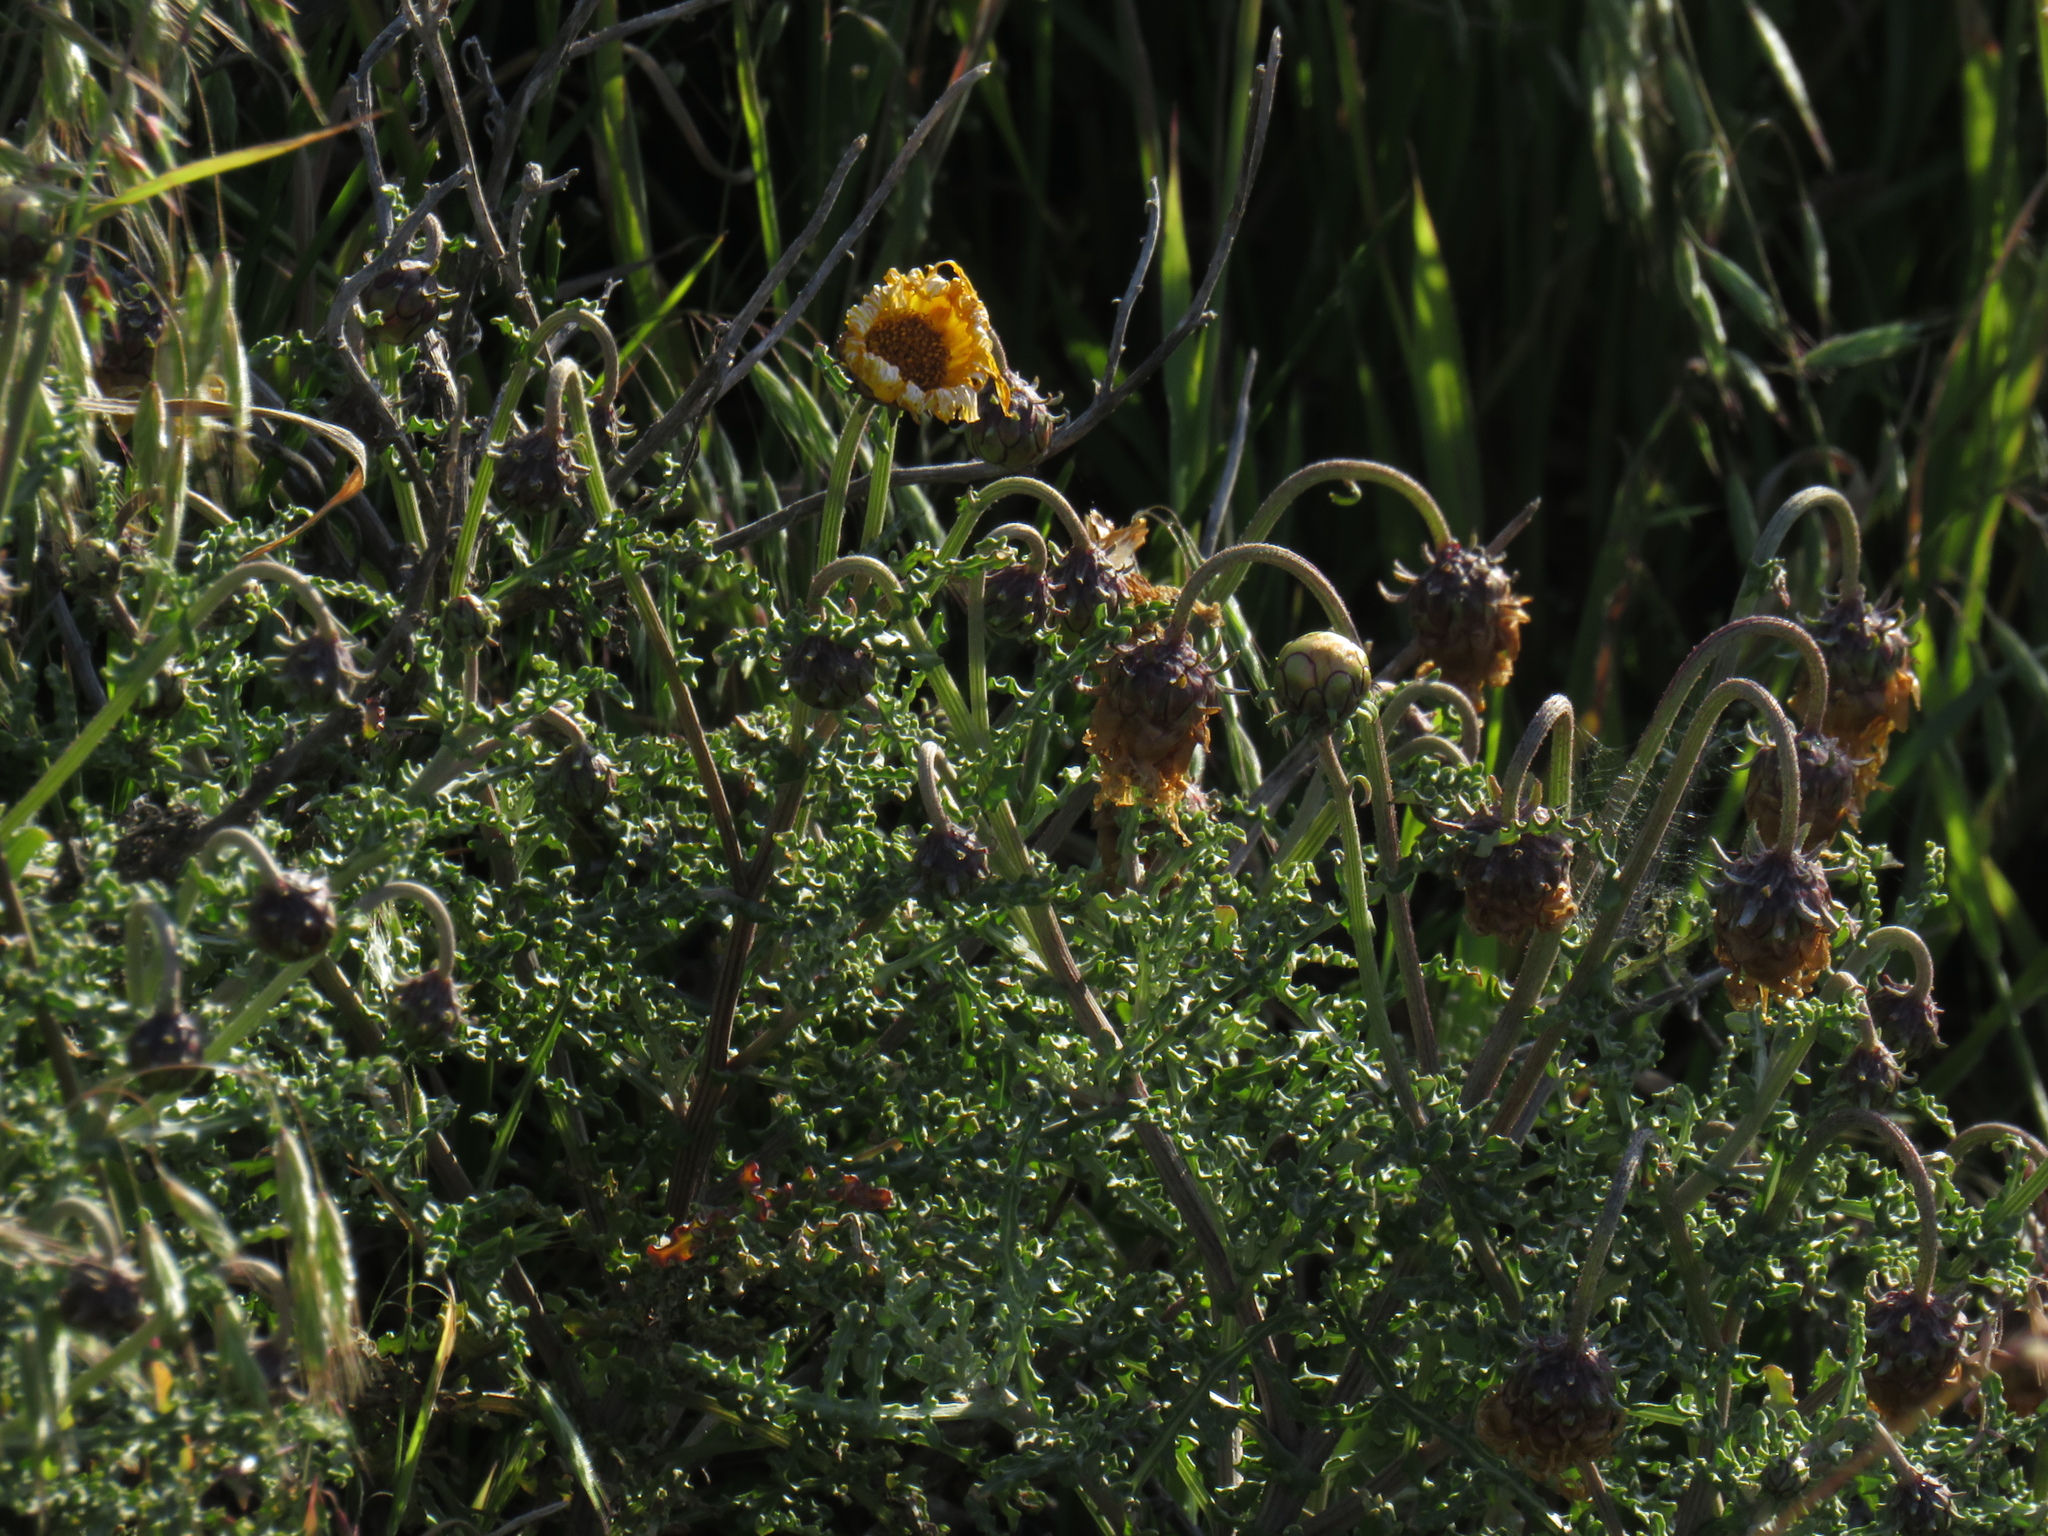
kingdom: Plantae
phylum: Tracheophyta
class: Magnoliopsida
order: Asterales
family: Asteraceae
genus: Arctotis
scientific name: Arctotis laciniata
